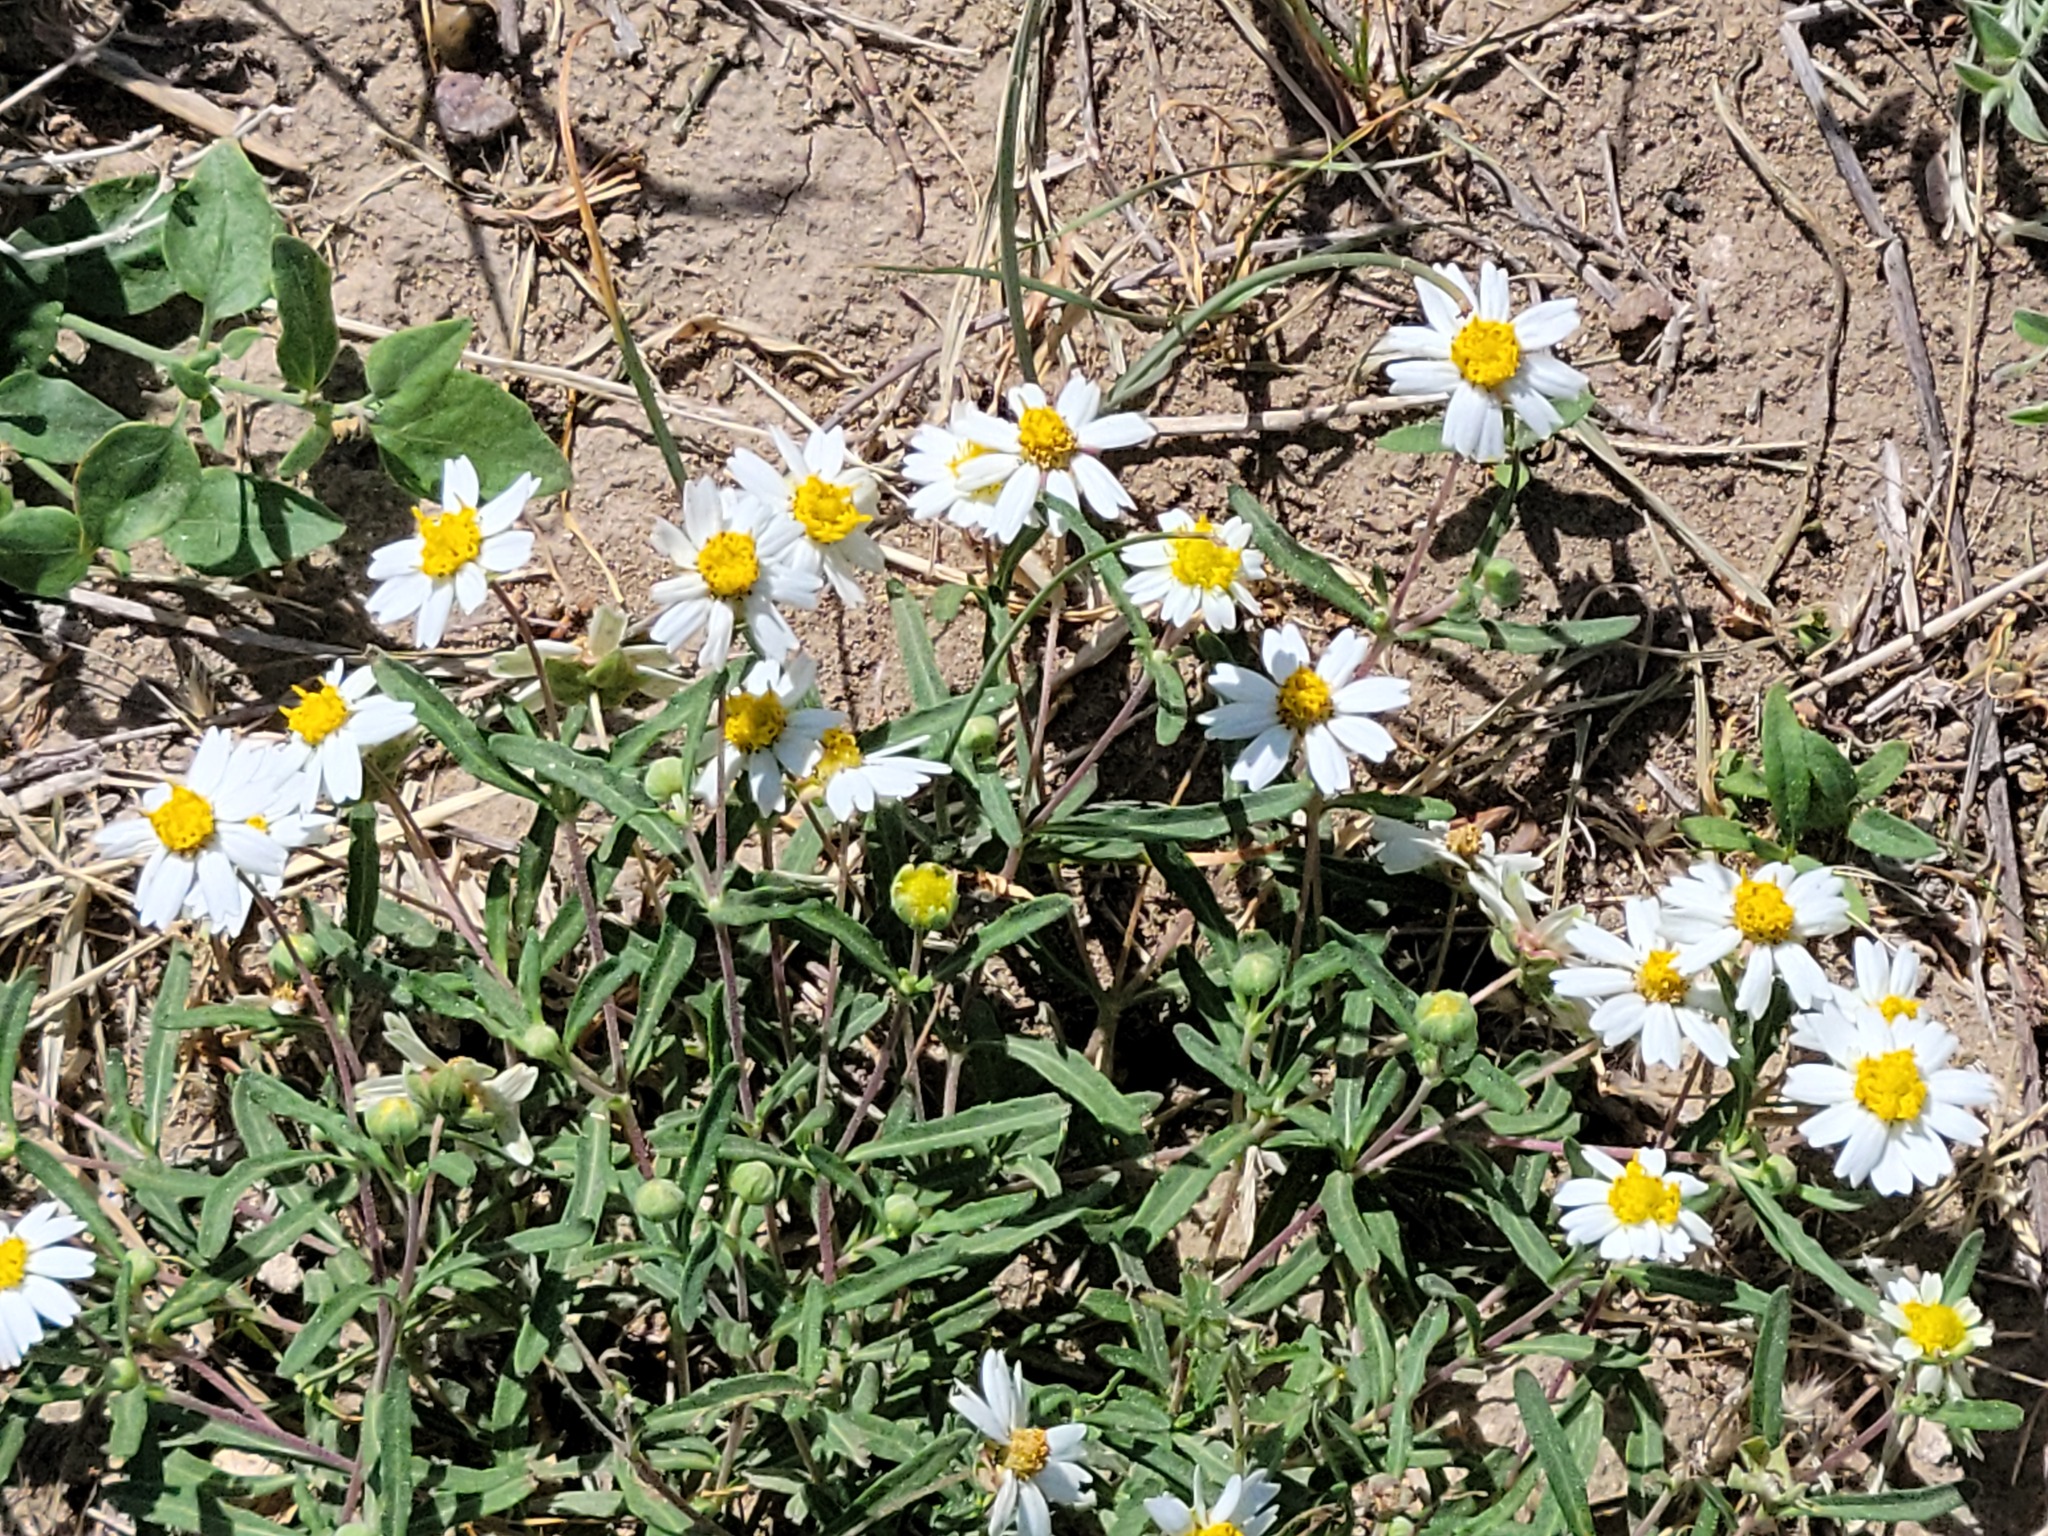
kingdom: Plantae
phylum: Tracheophyta
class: Magnoliopsida
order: Asterales
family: Asteraceae
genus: Melampodium
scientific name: Melampodium cinereum
